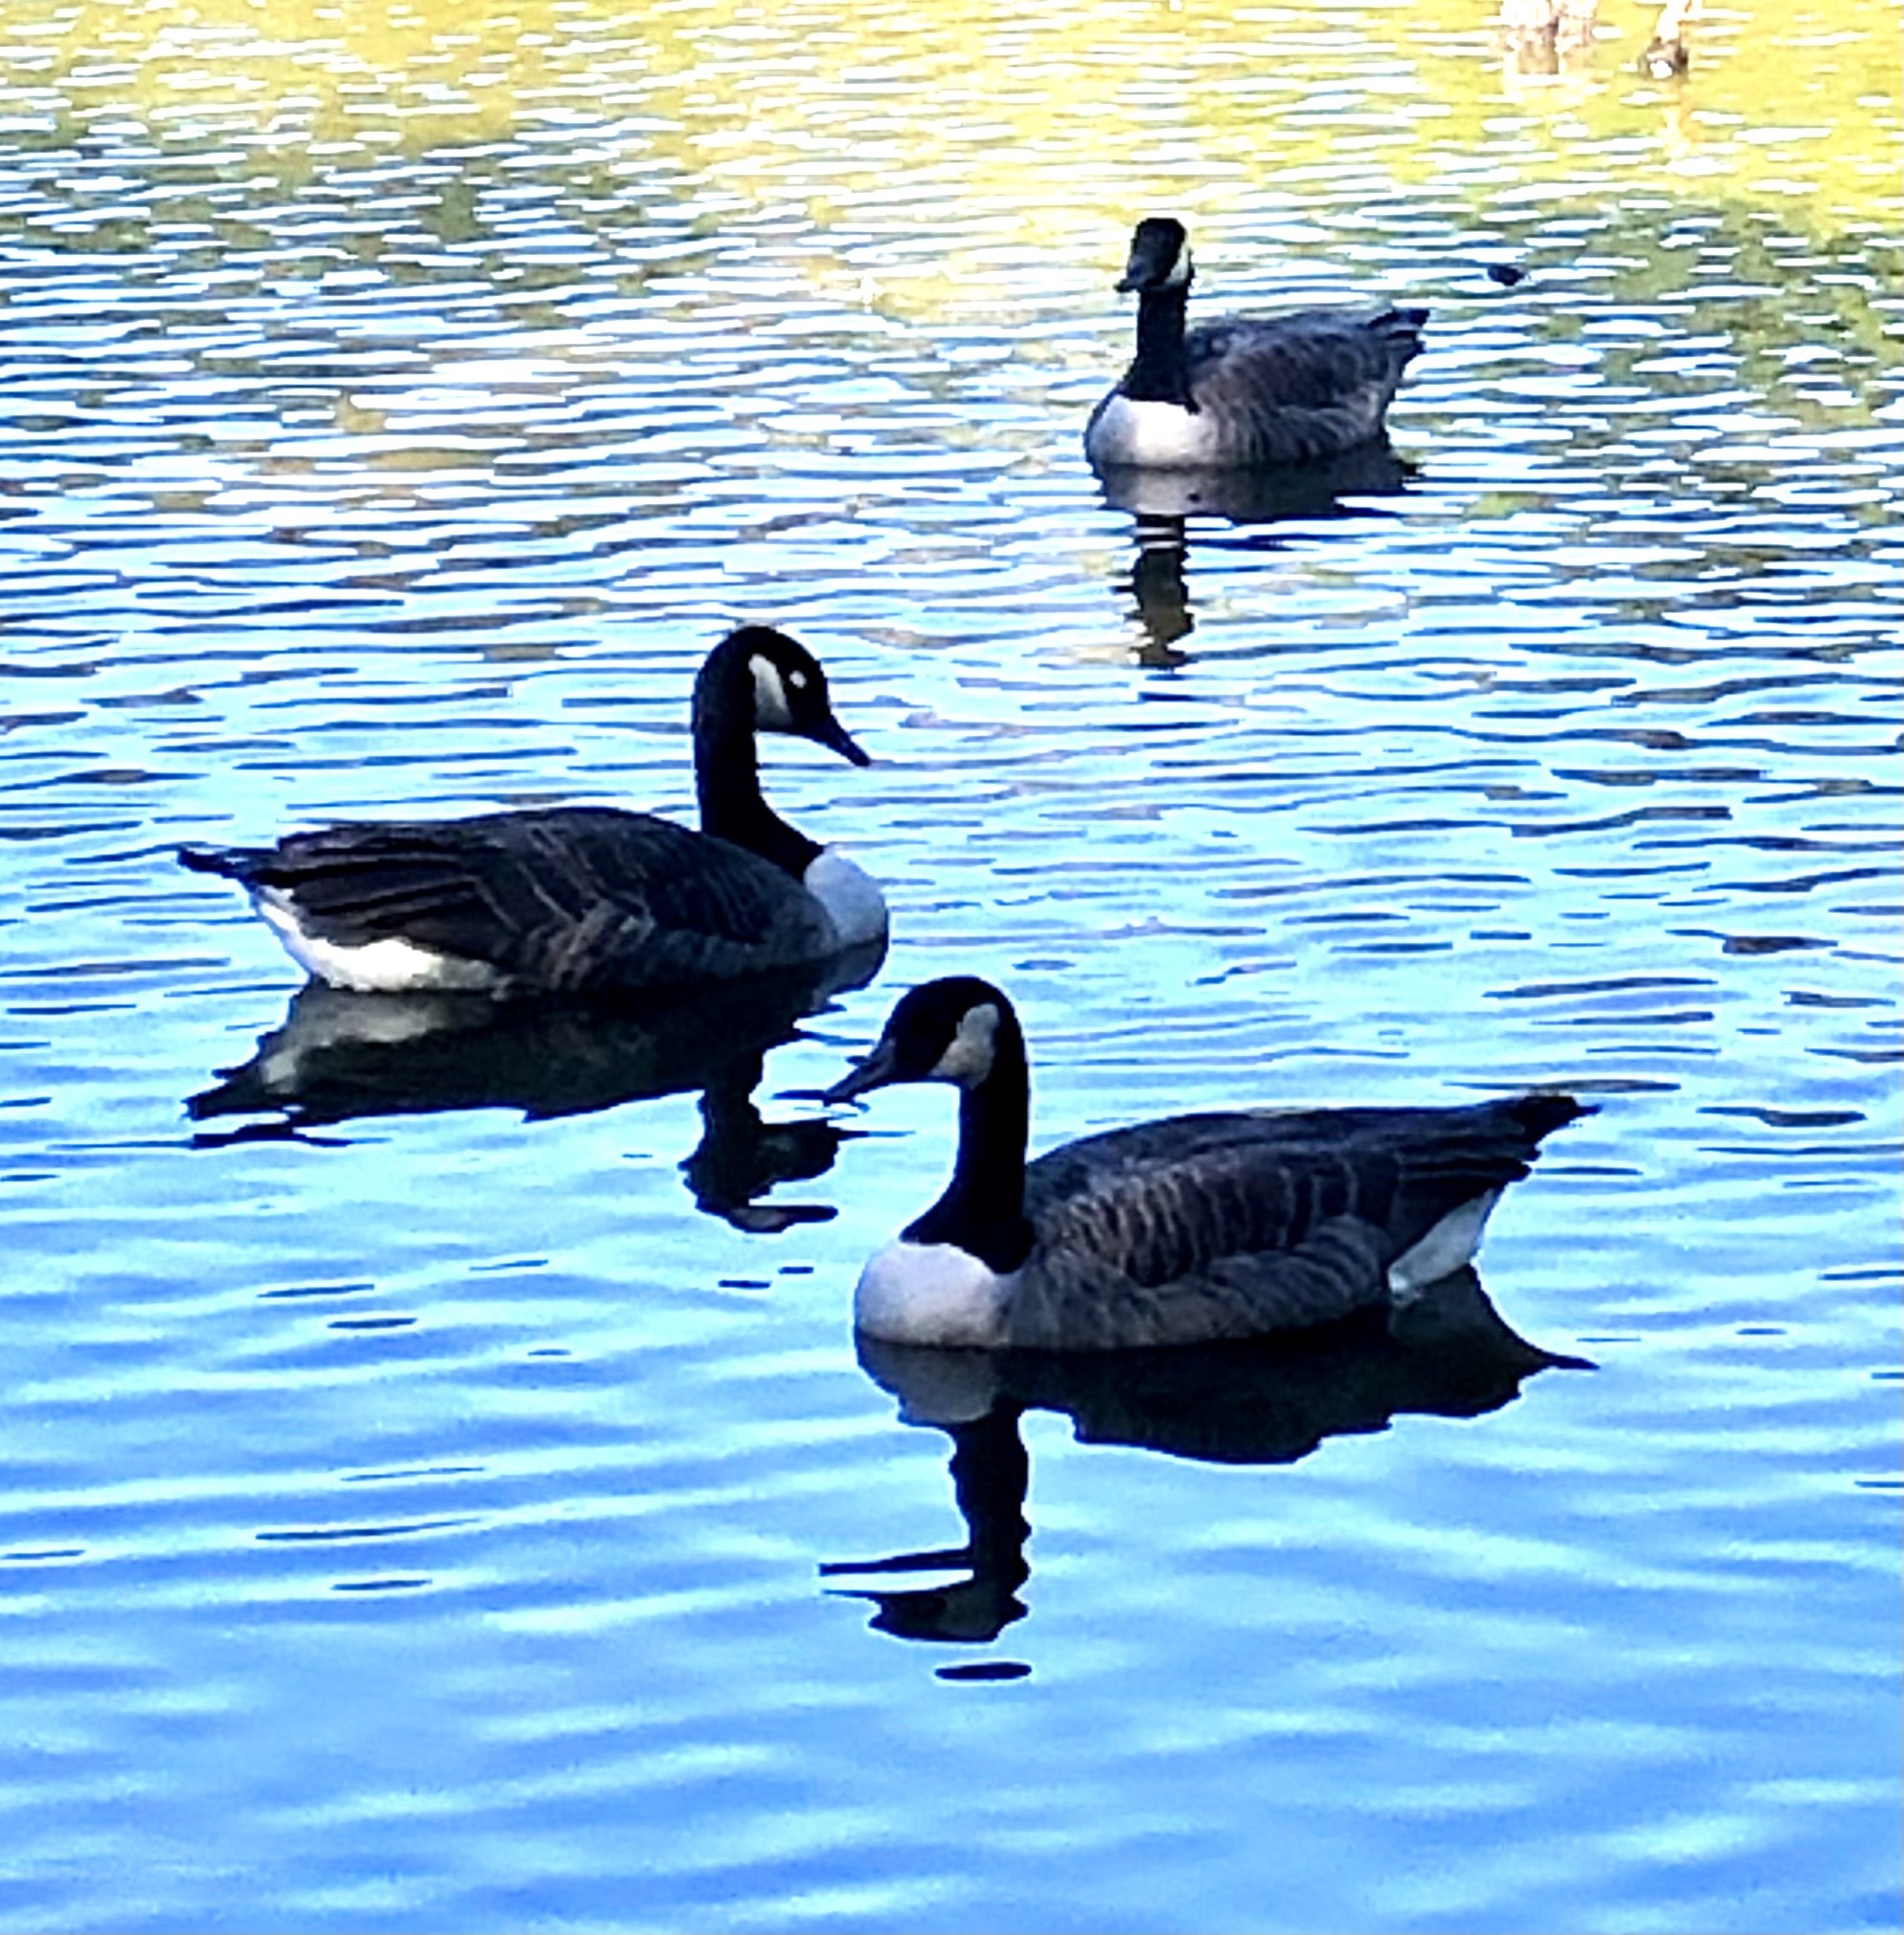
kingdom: Animalia
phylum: Chordata
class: Aves
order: Anseriformes
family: Anatidae
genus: Branta
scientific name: Branta canadensis
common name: Canada goose
